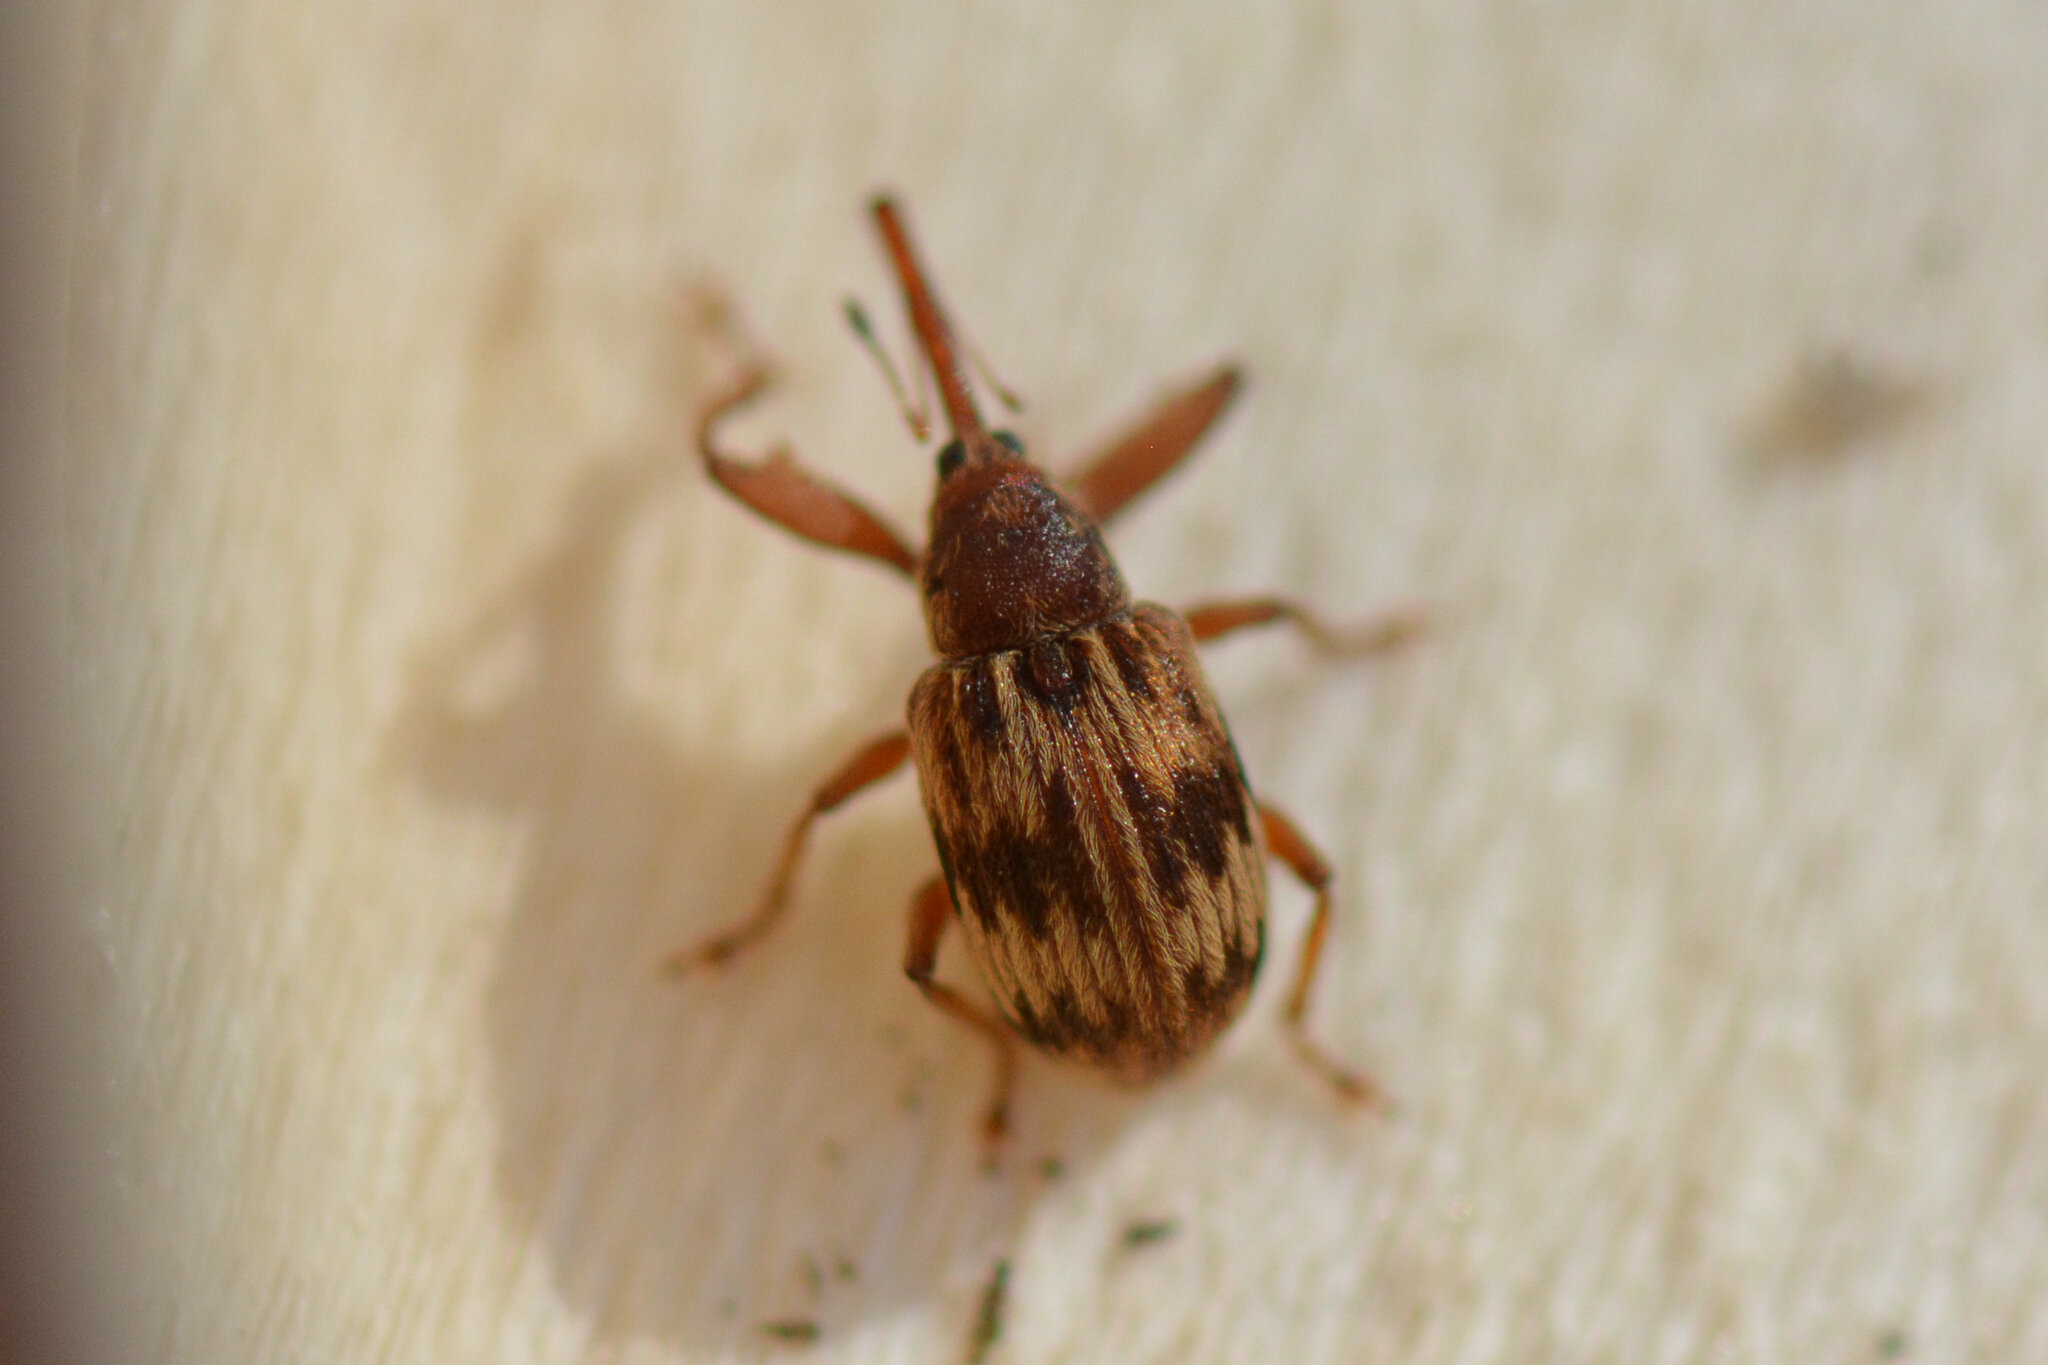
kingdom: Animalia
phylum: Arthropoda
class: Insecta
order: Coleoptera
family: Curculionidae
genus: Anthonomus
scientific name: Anthonomus rectirostris
